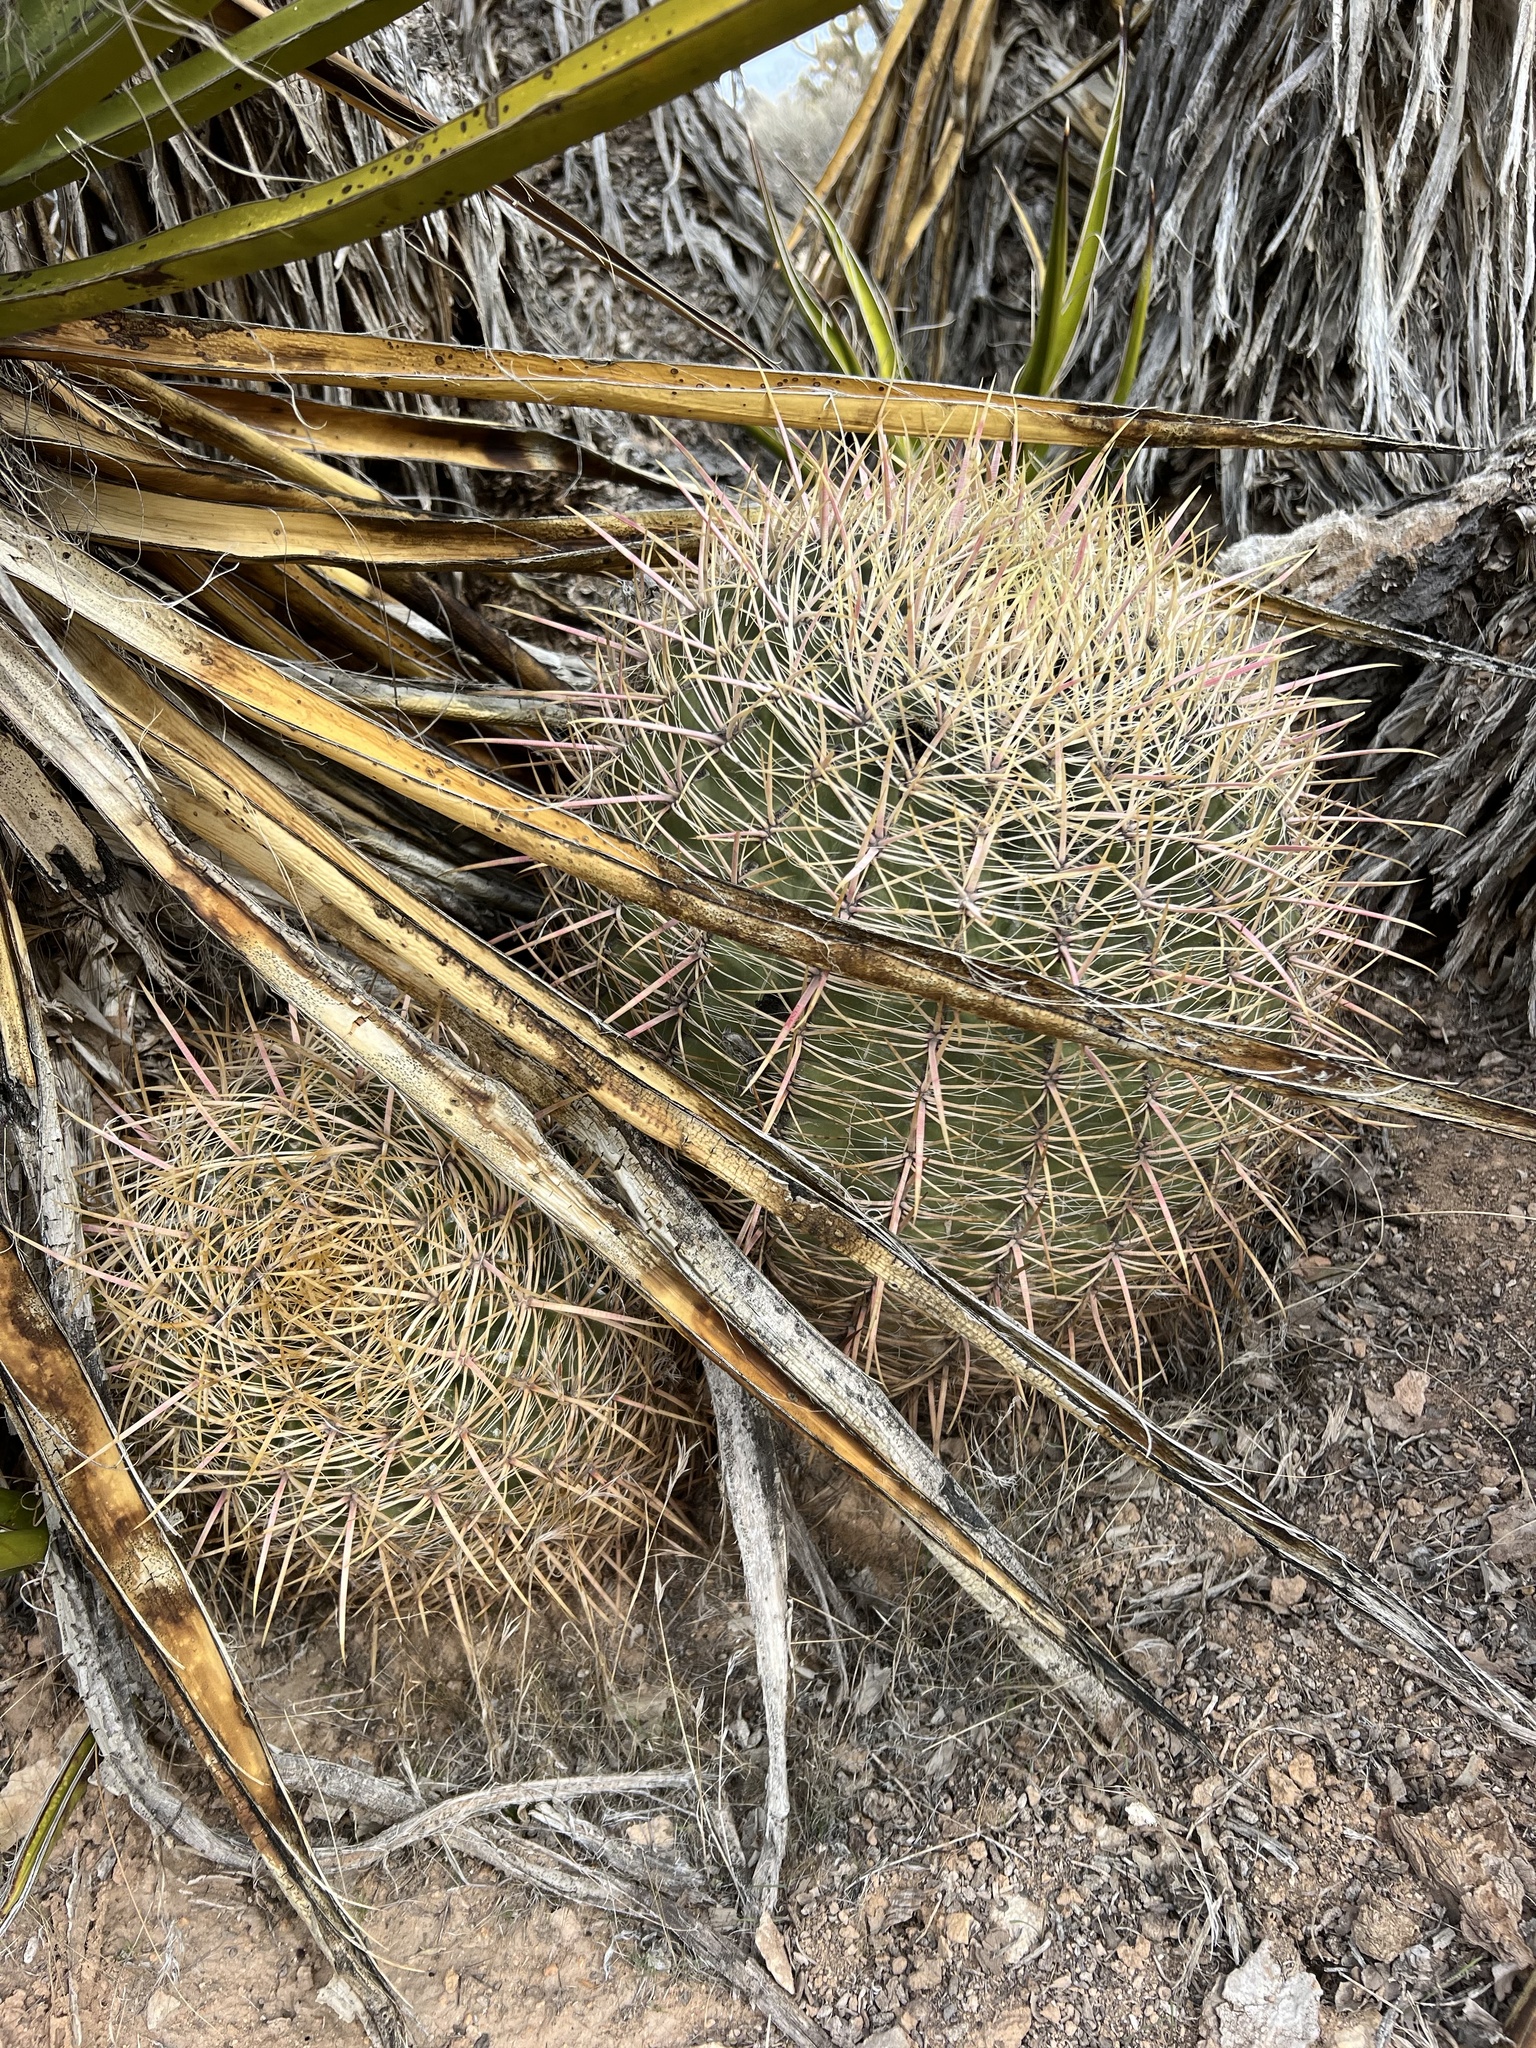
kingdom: Plantae
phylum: Tracheophyta
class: Magnoliopsida
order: Caryophyllales
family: Cactaceae
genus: Ferocactus
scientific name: Ferocactus cylindraceus
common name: California barrel cactus
